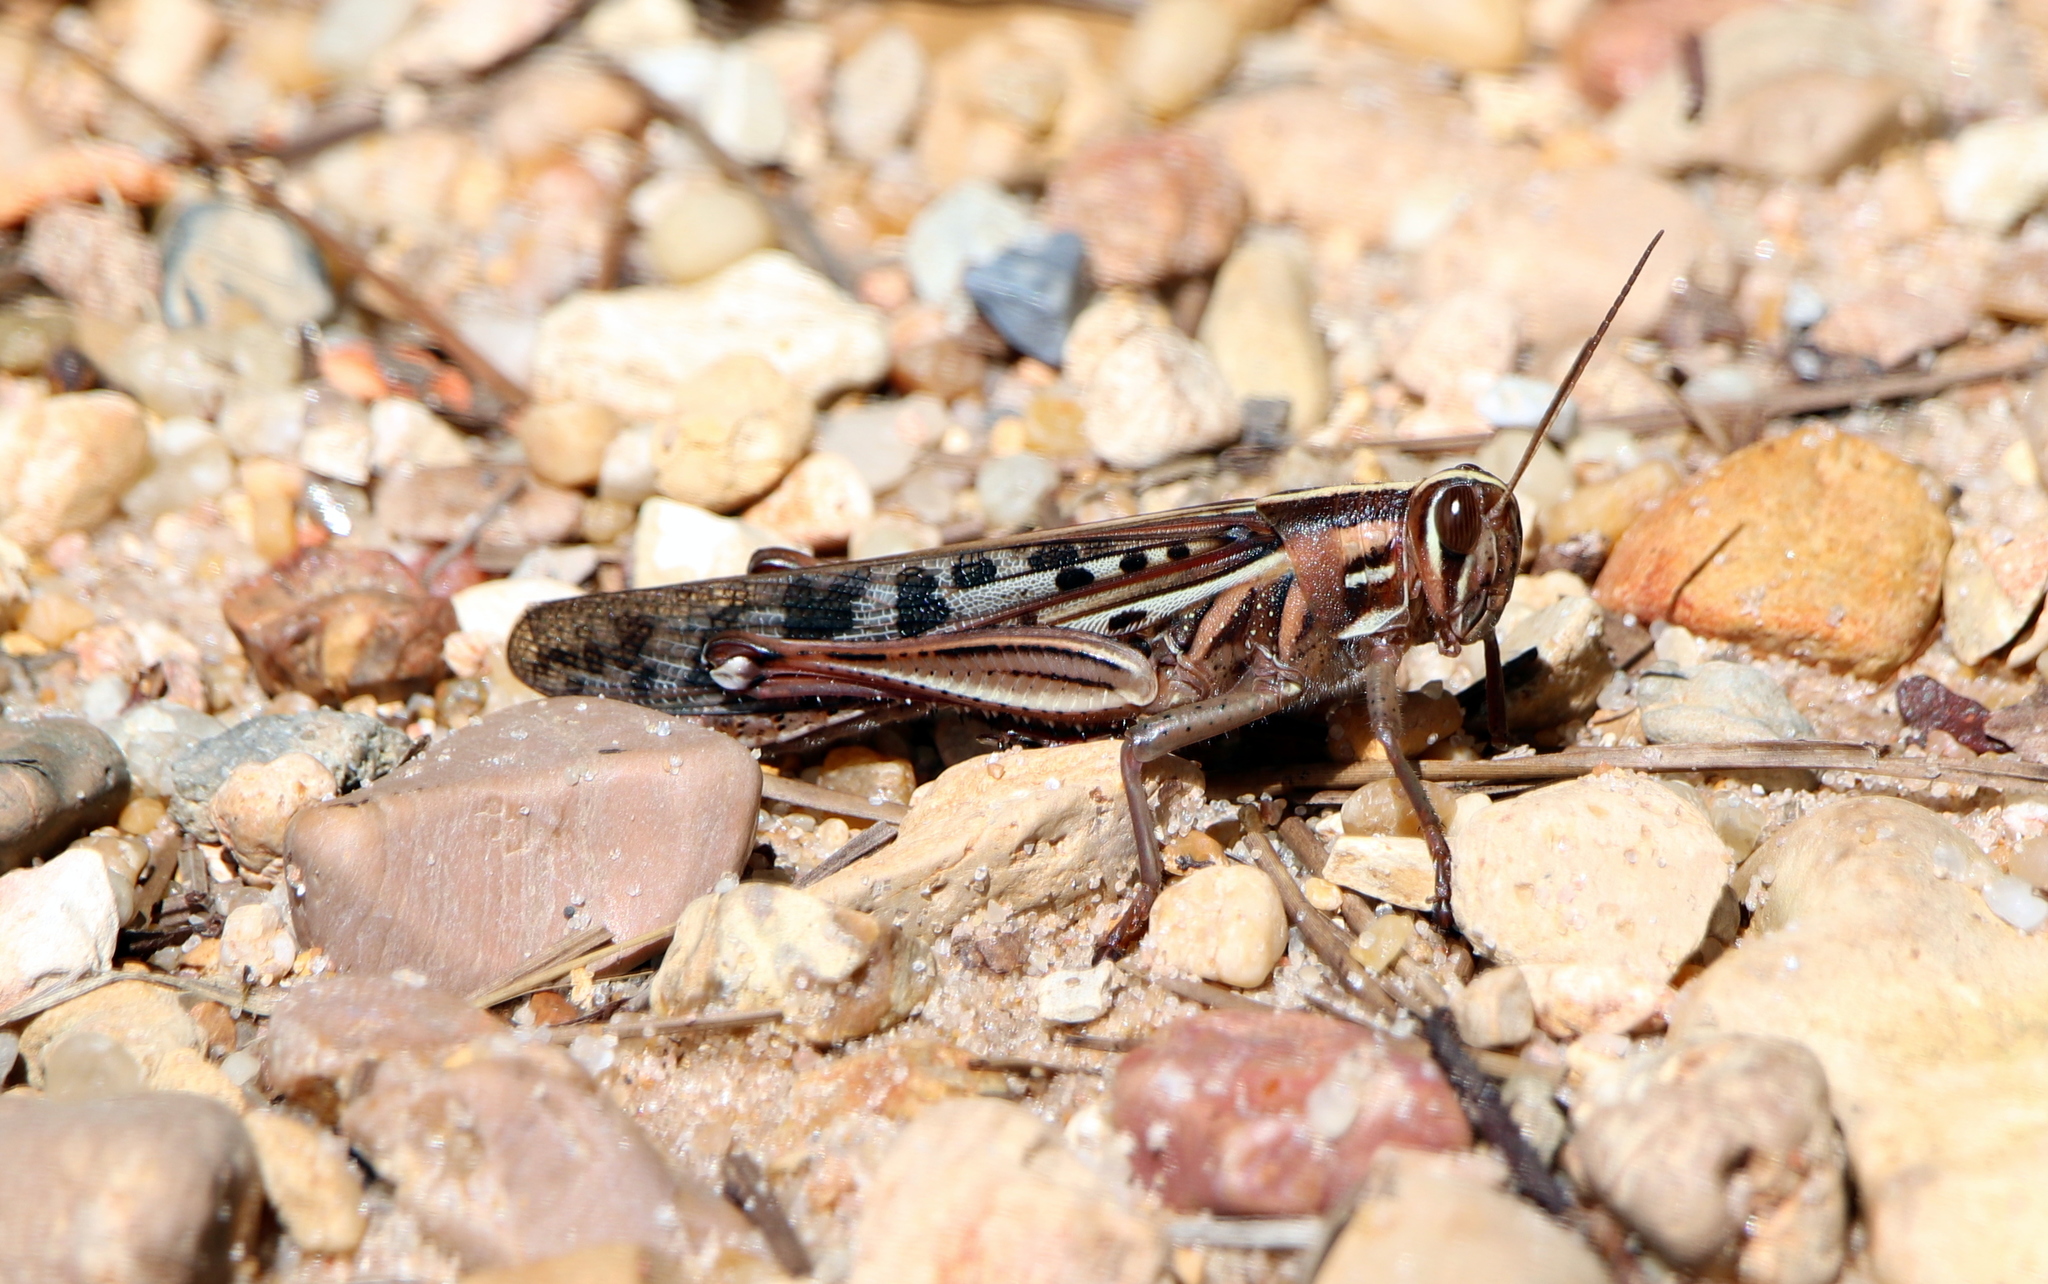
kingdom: Animalia
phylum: Arthropoda
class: Insecta
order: Orthoptera
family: Acrididae
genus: Schistocerca
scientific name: Schistocerca americana
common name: American bird locust
